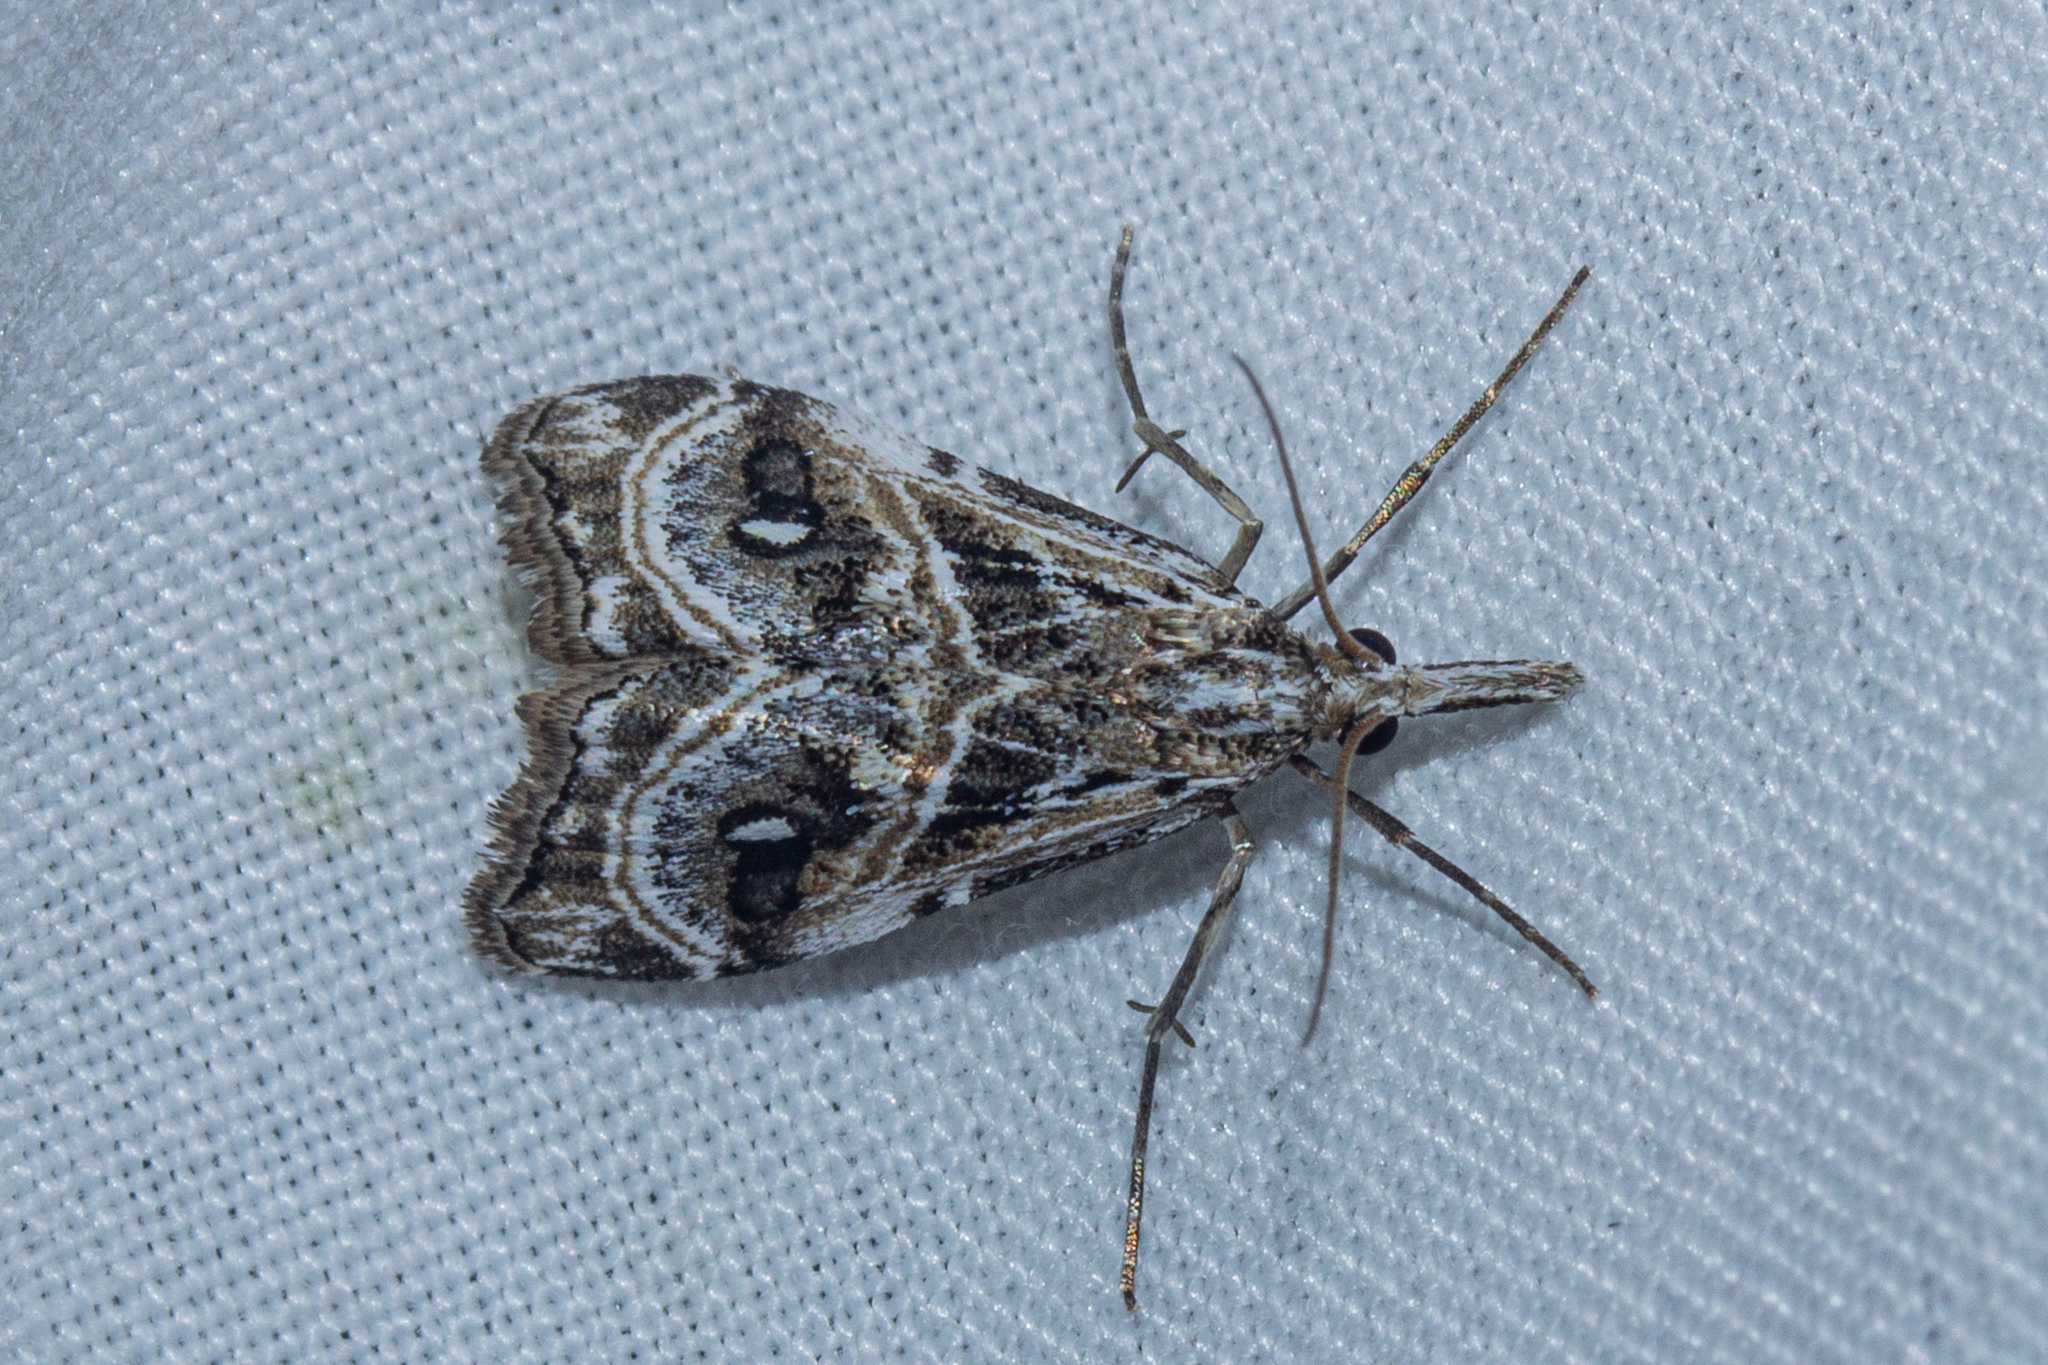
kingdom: Animalia
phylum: Arthropoda
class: Insecta
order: Lepidoptera
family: Crambidae
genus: Gadira
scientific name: Gadira acerella
